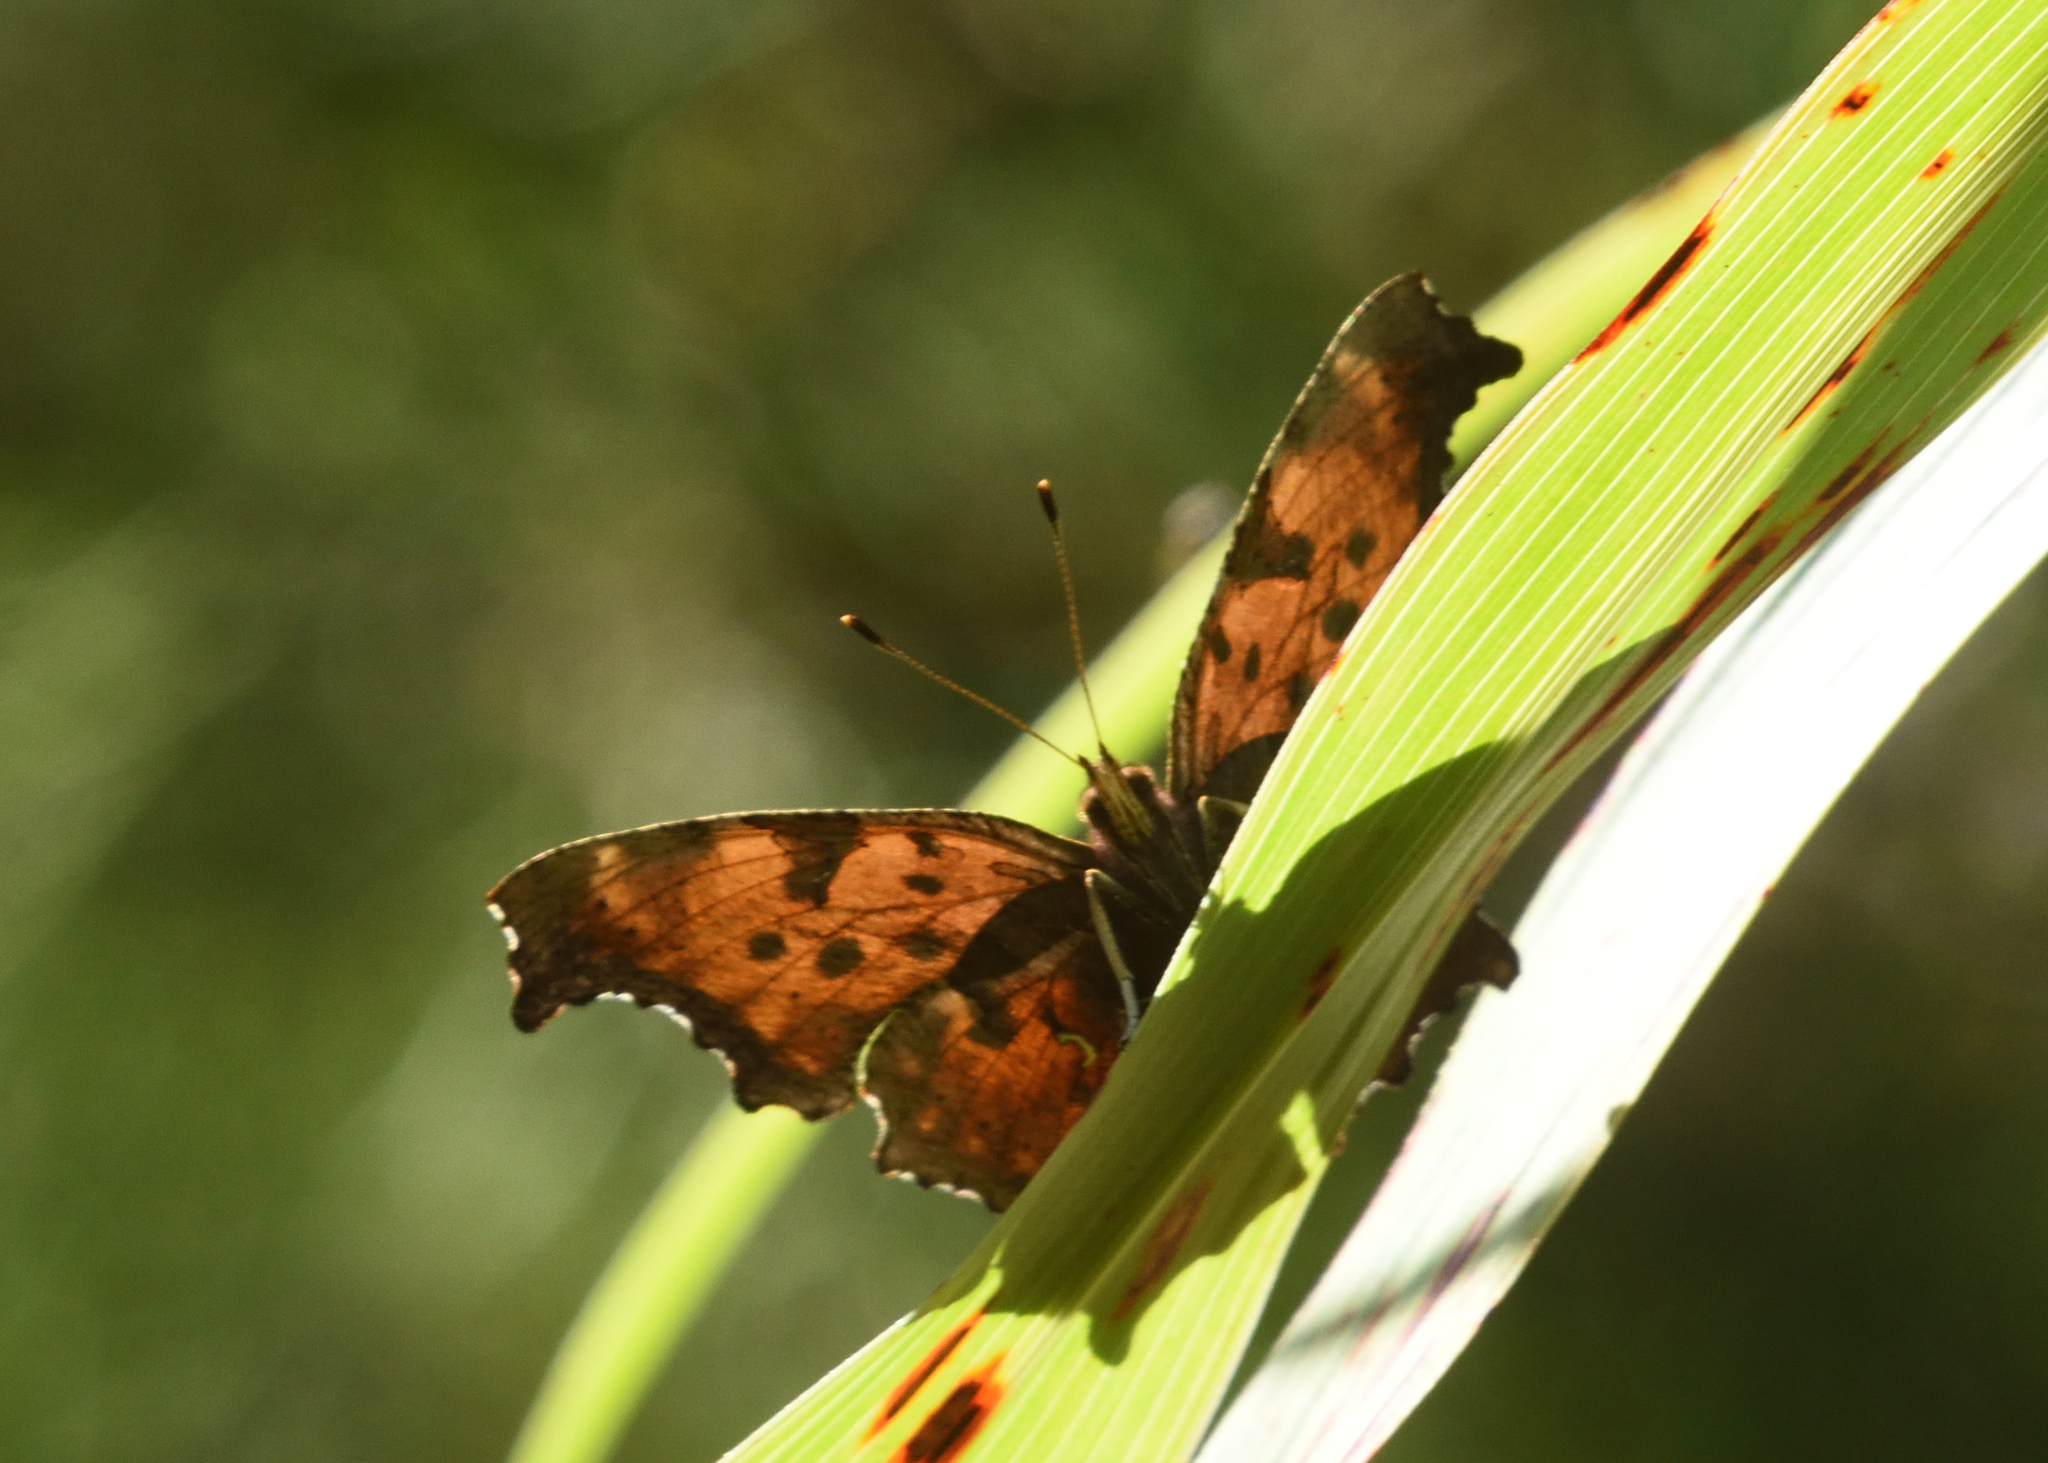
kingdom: Animalia
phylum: Arthropoda
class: Insecta
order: Lepidoptera
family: Nymphalidae
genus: Polygonia
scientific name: Polygonia comma
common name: Eastern comma
